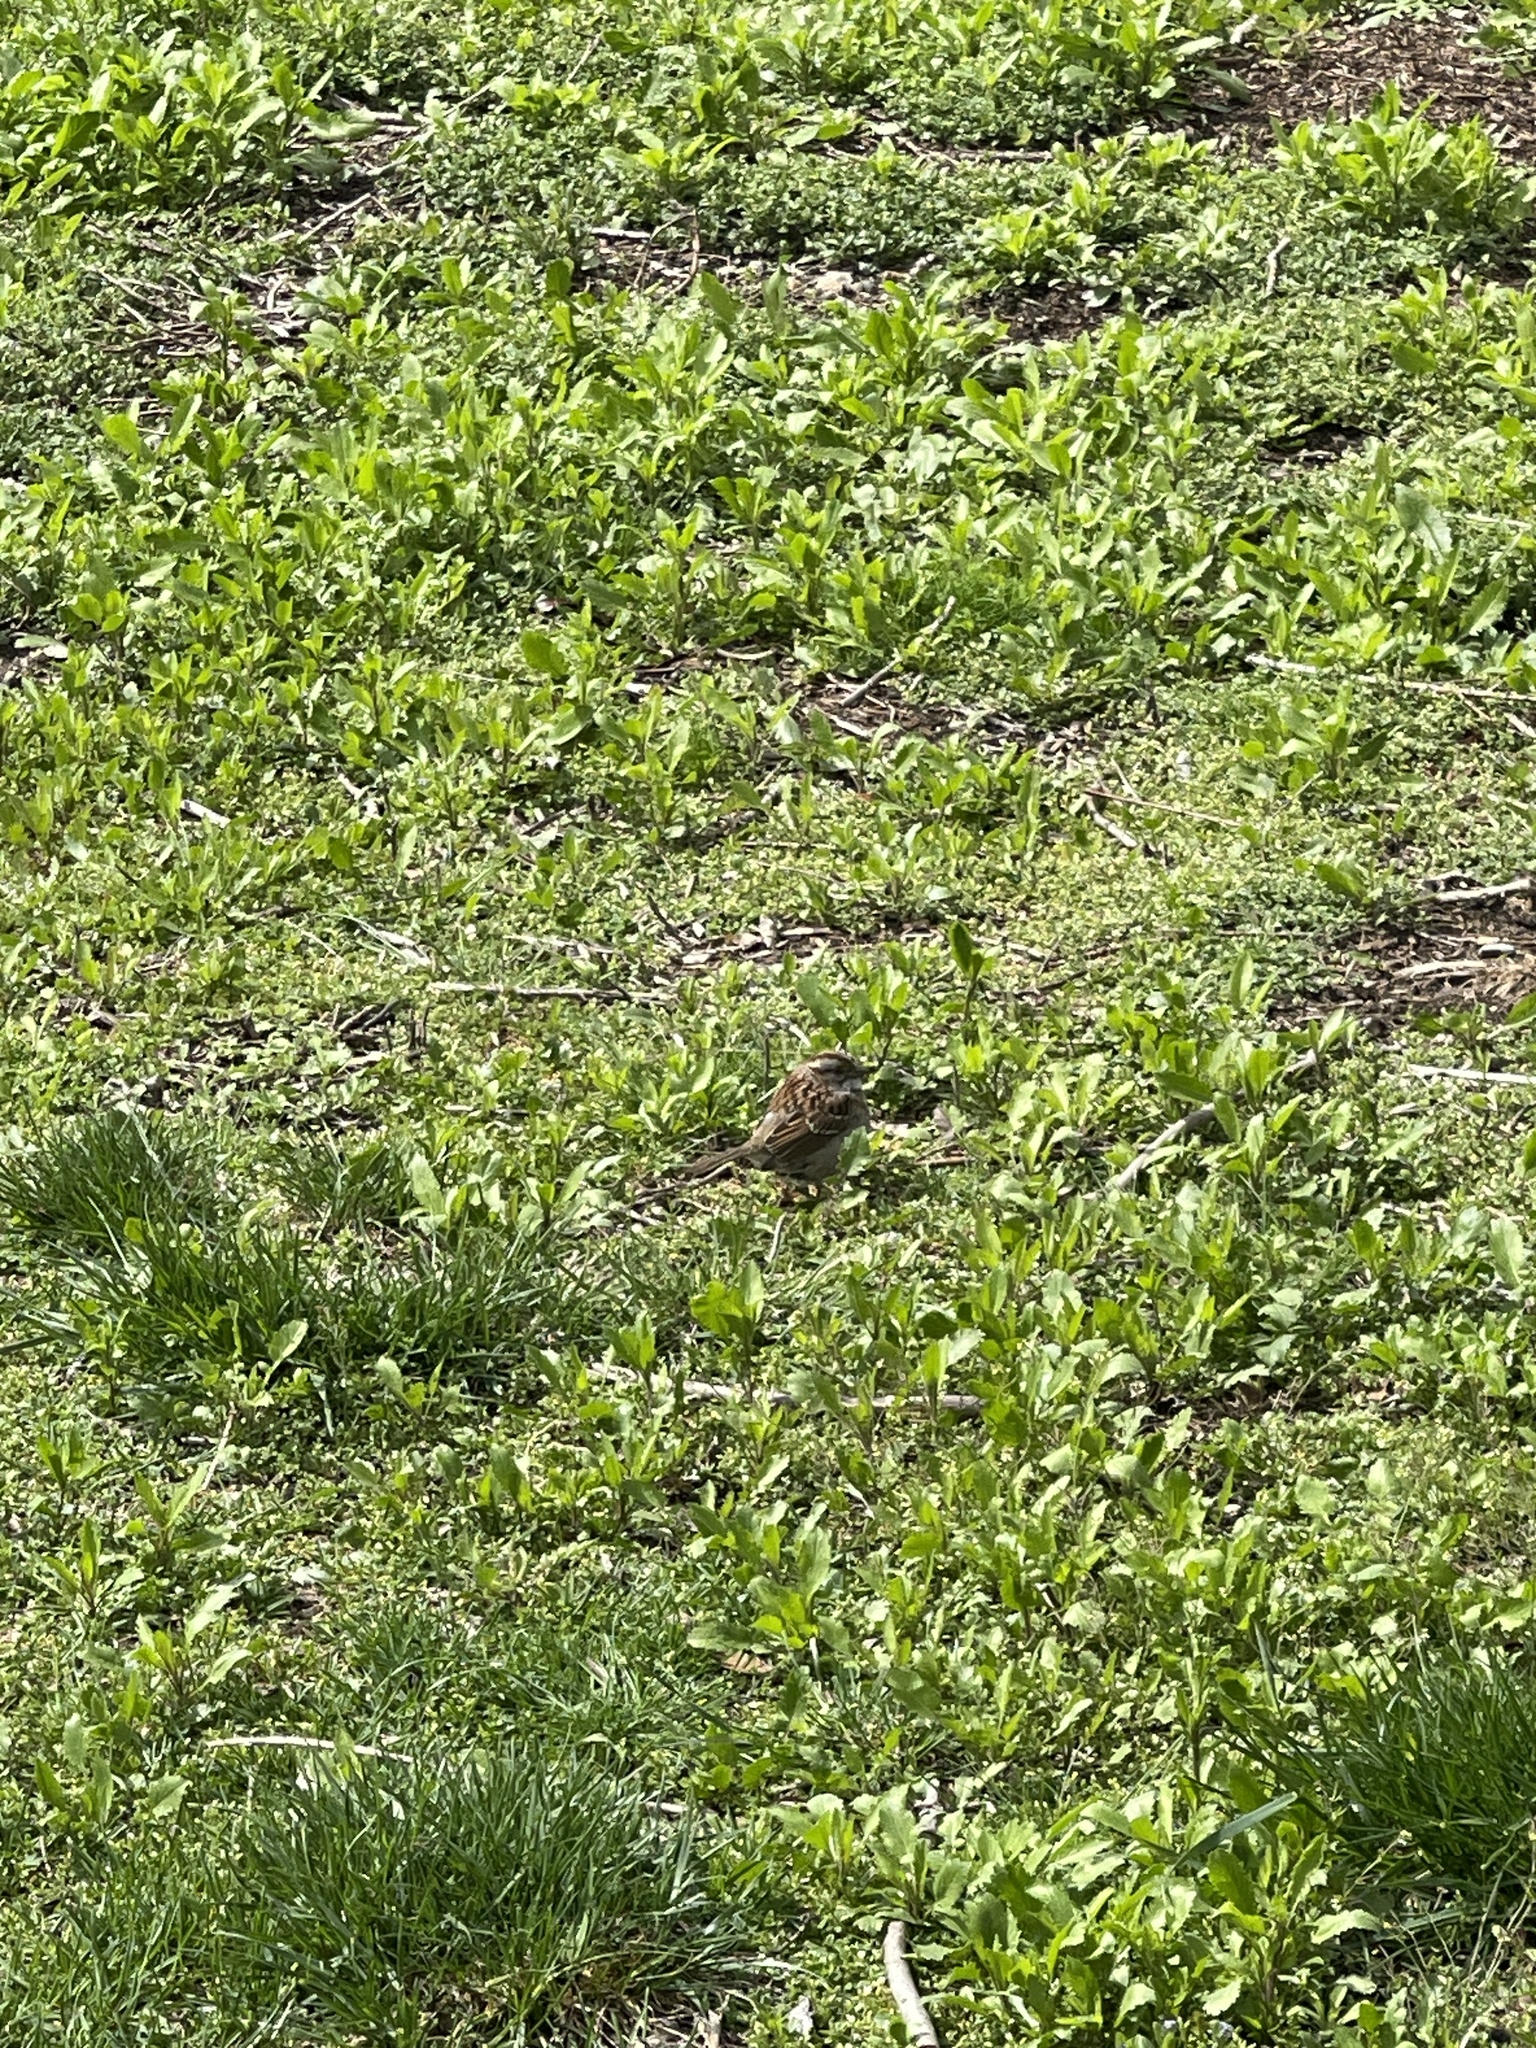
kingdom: Animalia
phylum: Chordata
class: Aves
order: Passeriformes
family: Passerellidae
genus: Zonotrichia
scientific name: Zonotrichia albicollis
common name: White-throated sparrow
